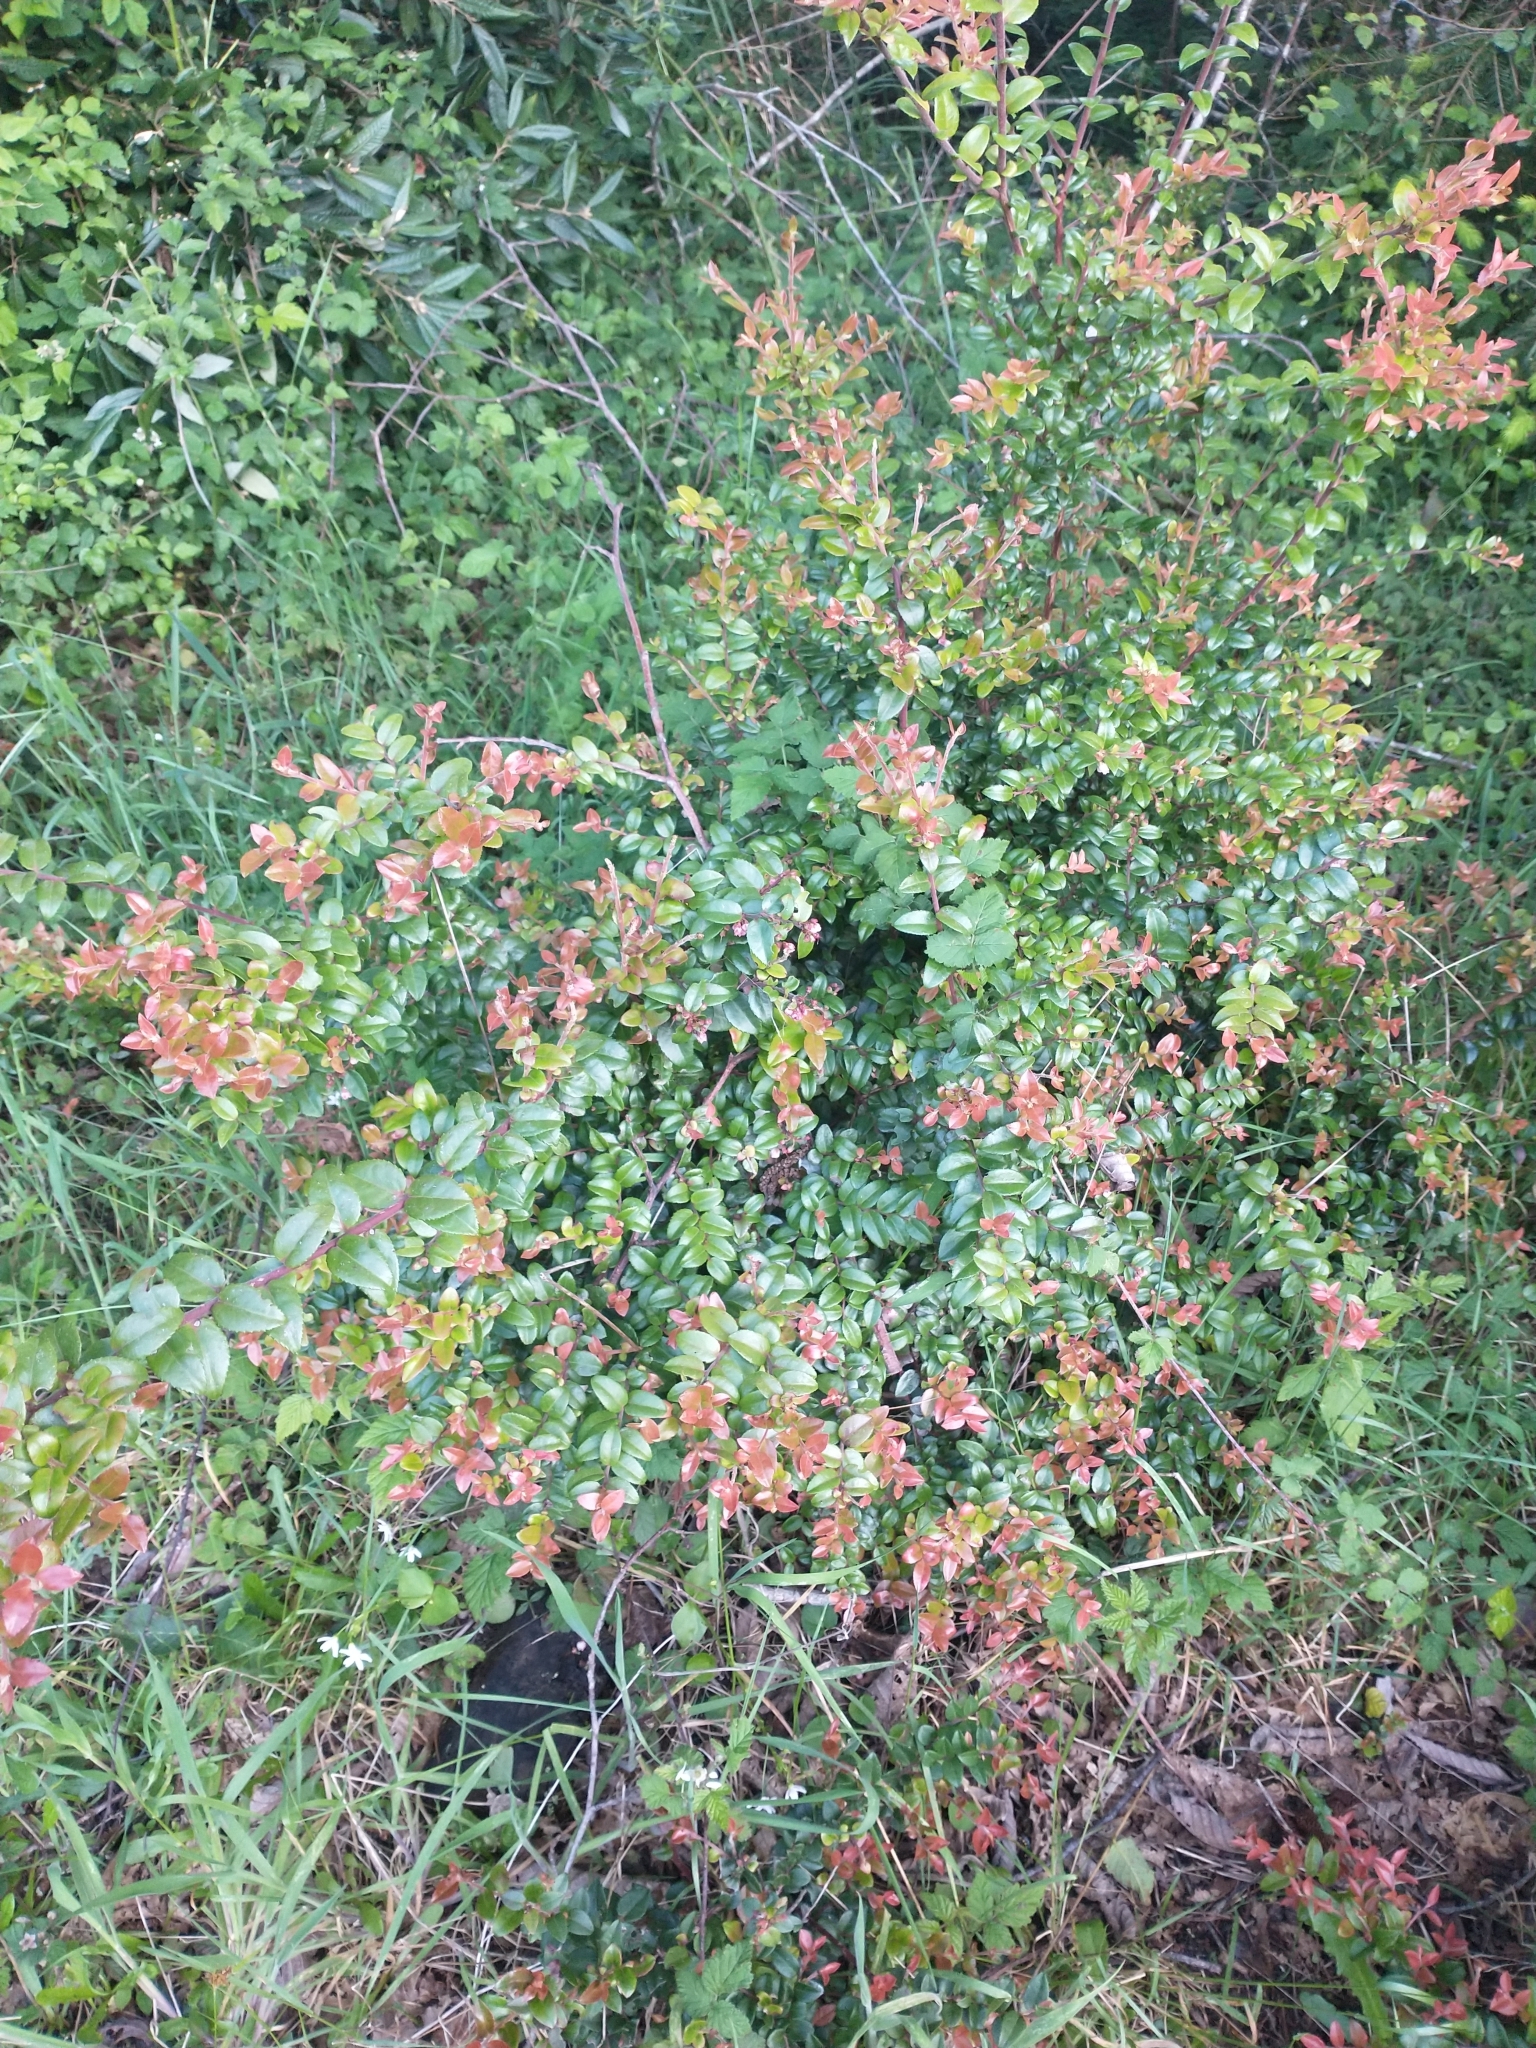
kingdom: Plantae
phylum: Tracheophyta
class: Magnoliopsida
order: Ericales
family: Ericaceae
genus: Vaccinium
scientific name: Vaccinium ovatum
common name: California-huckleberry
